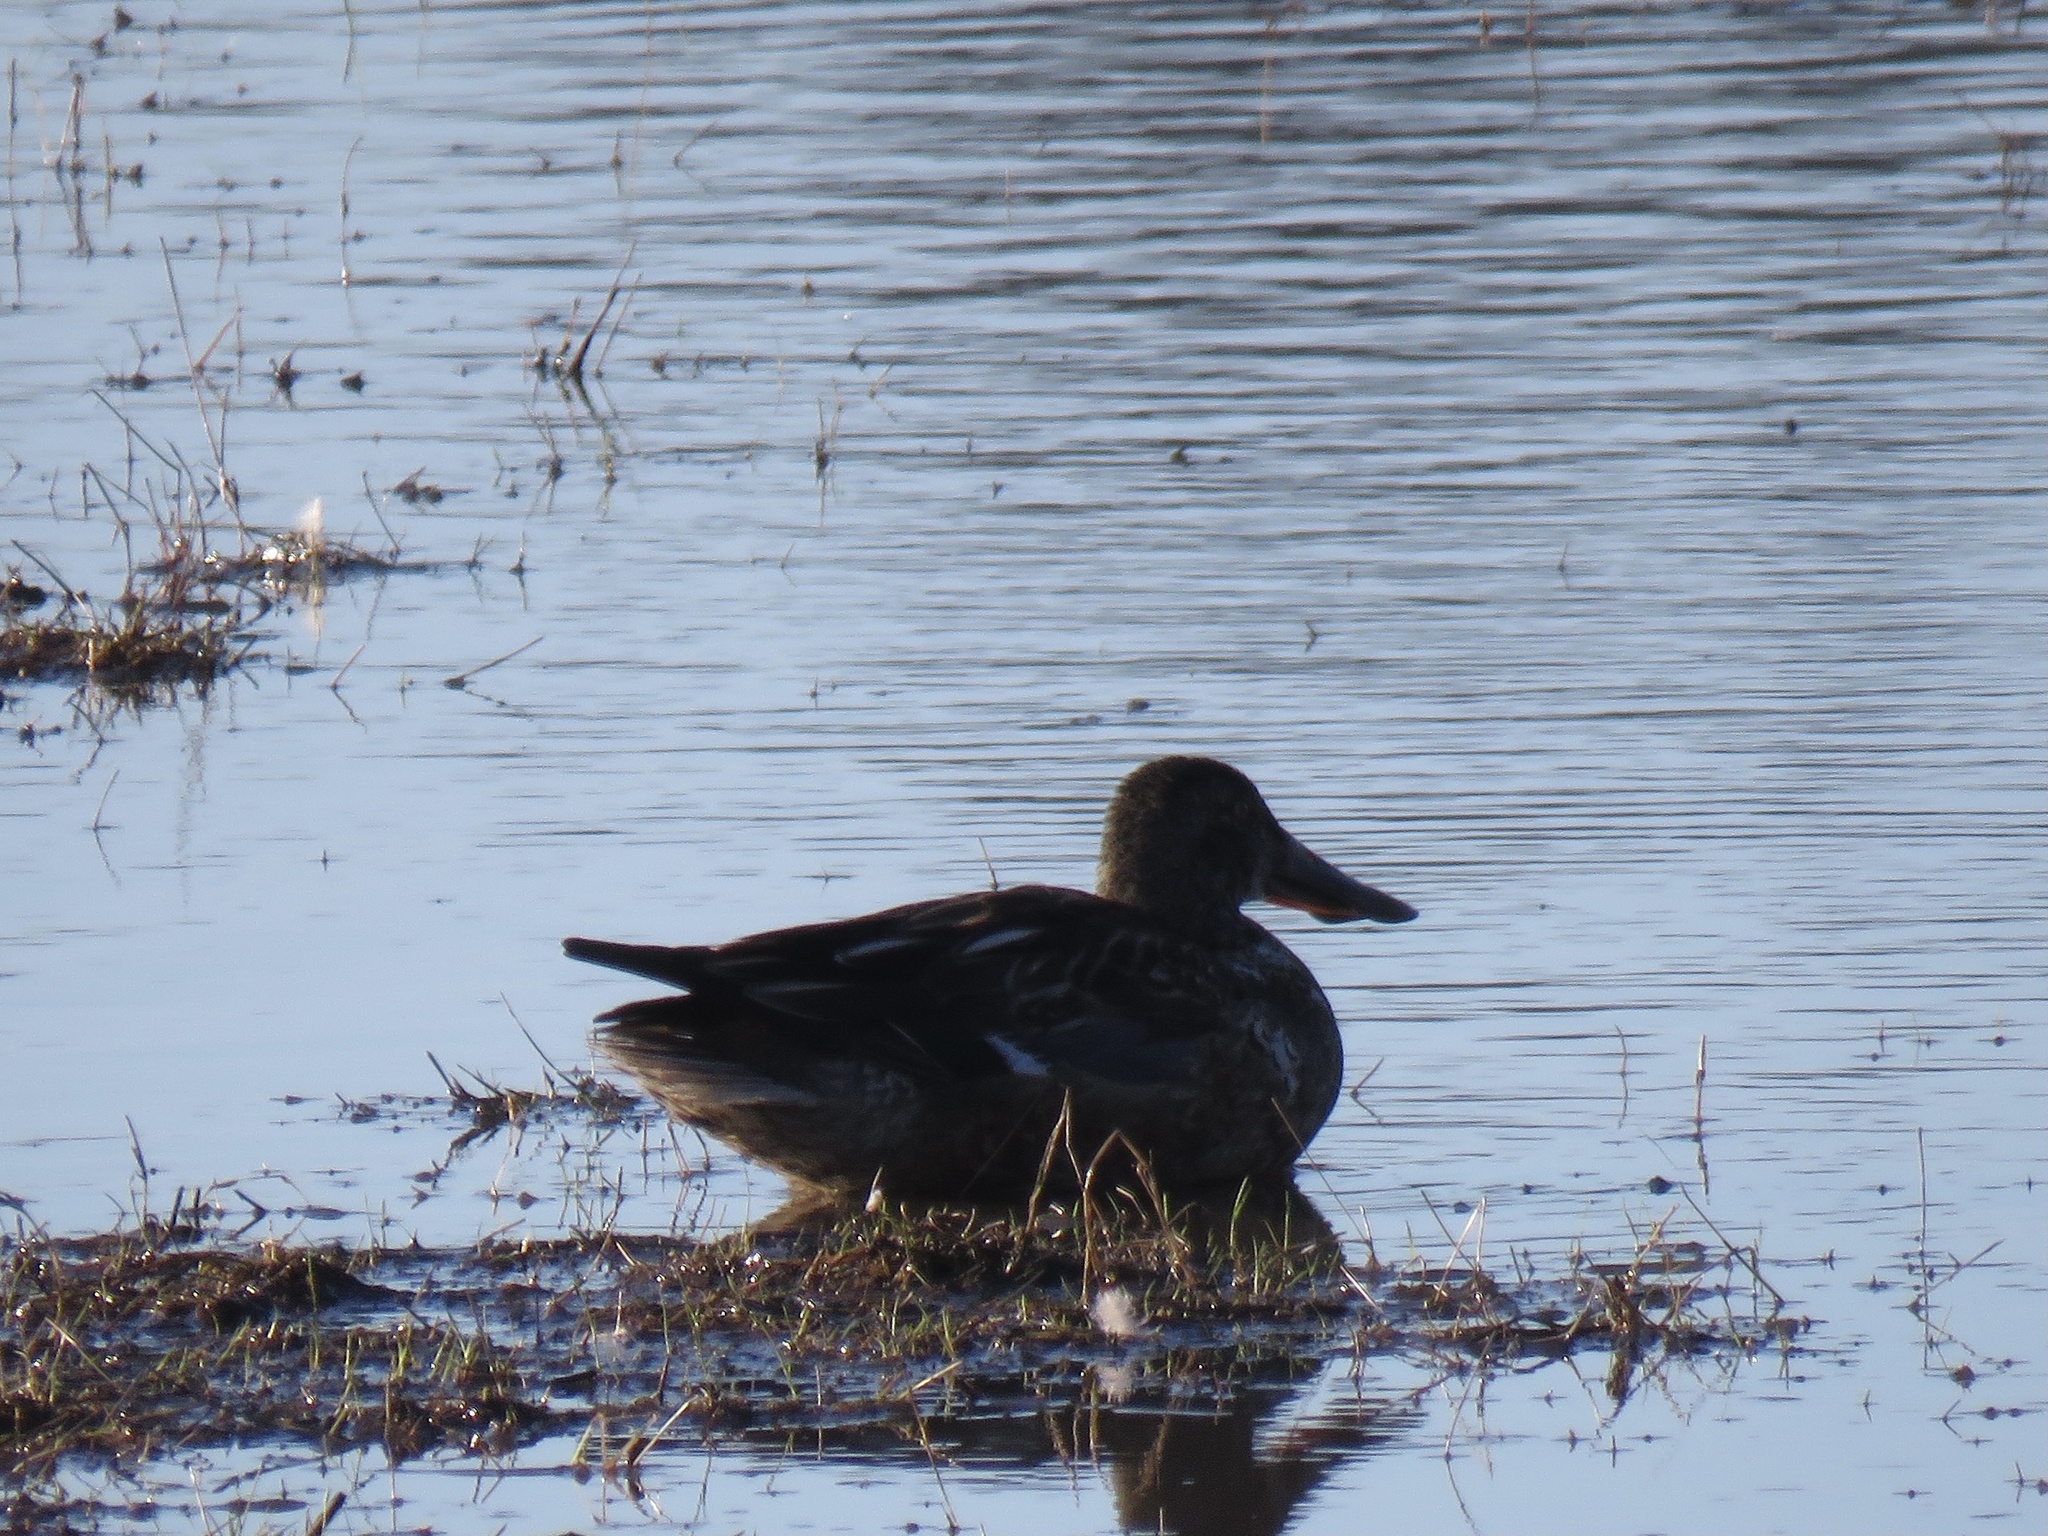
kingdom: Animalia
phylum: Chordata
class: Aves
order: Anseriformes
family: Anatidae
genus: Spatula
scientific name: Spatula clypeata
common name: Northern shoveler
